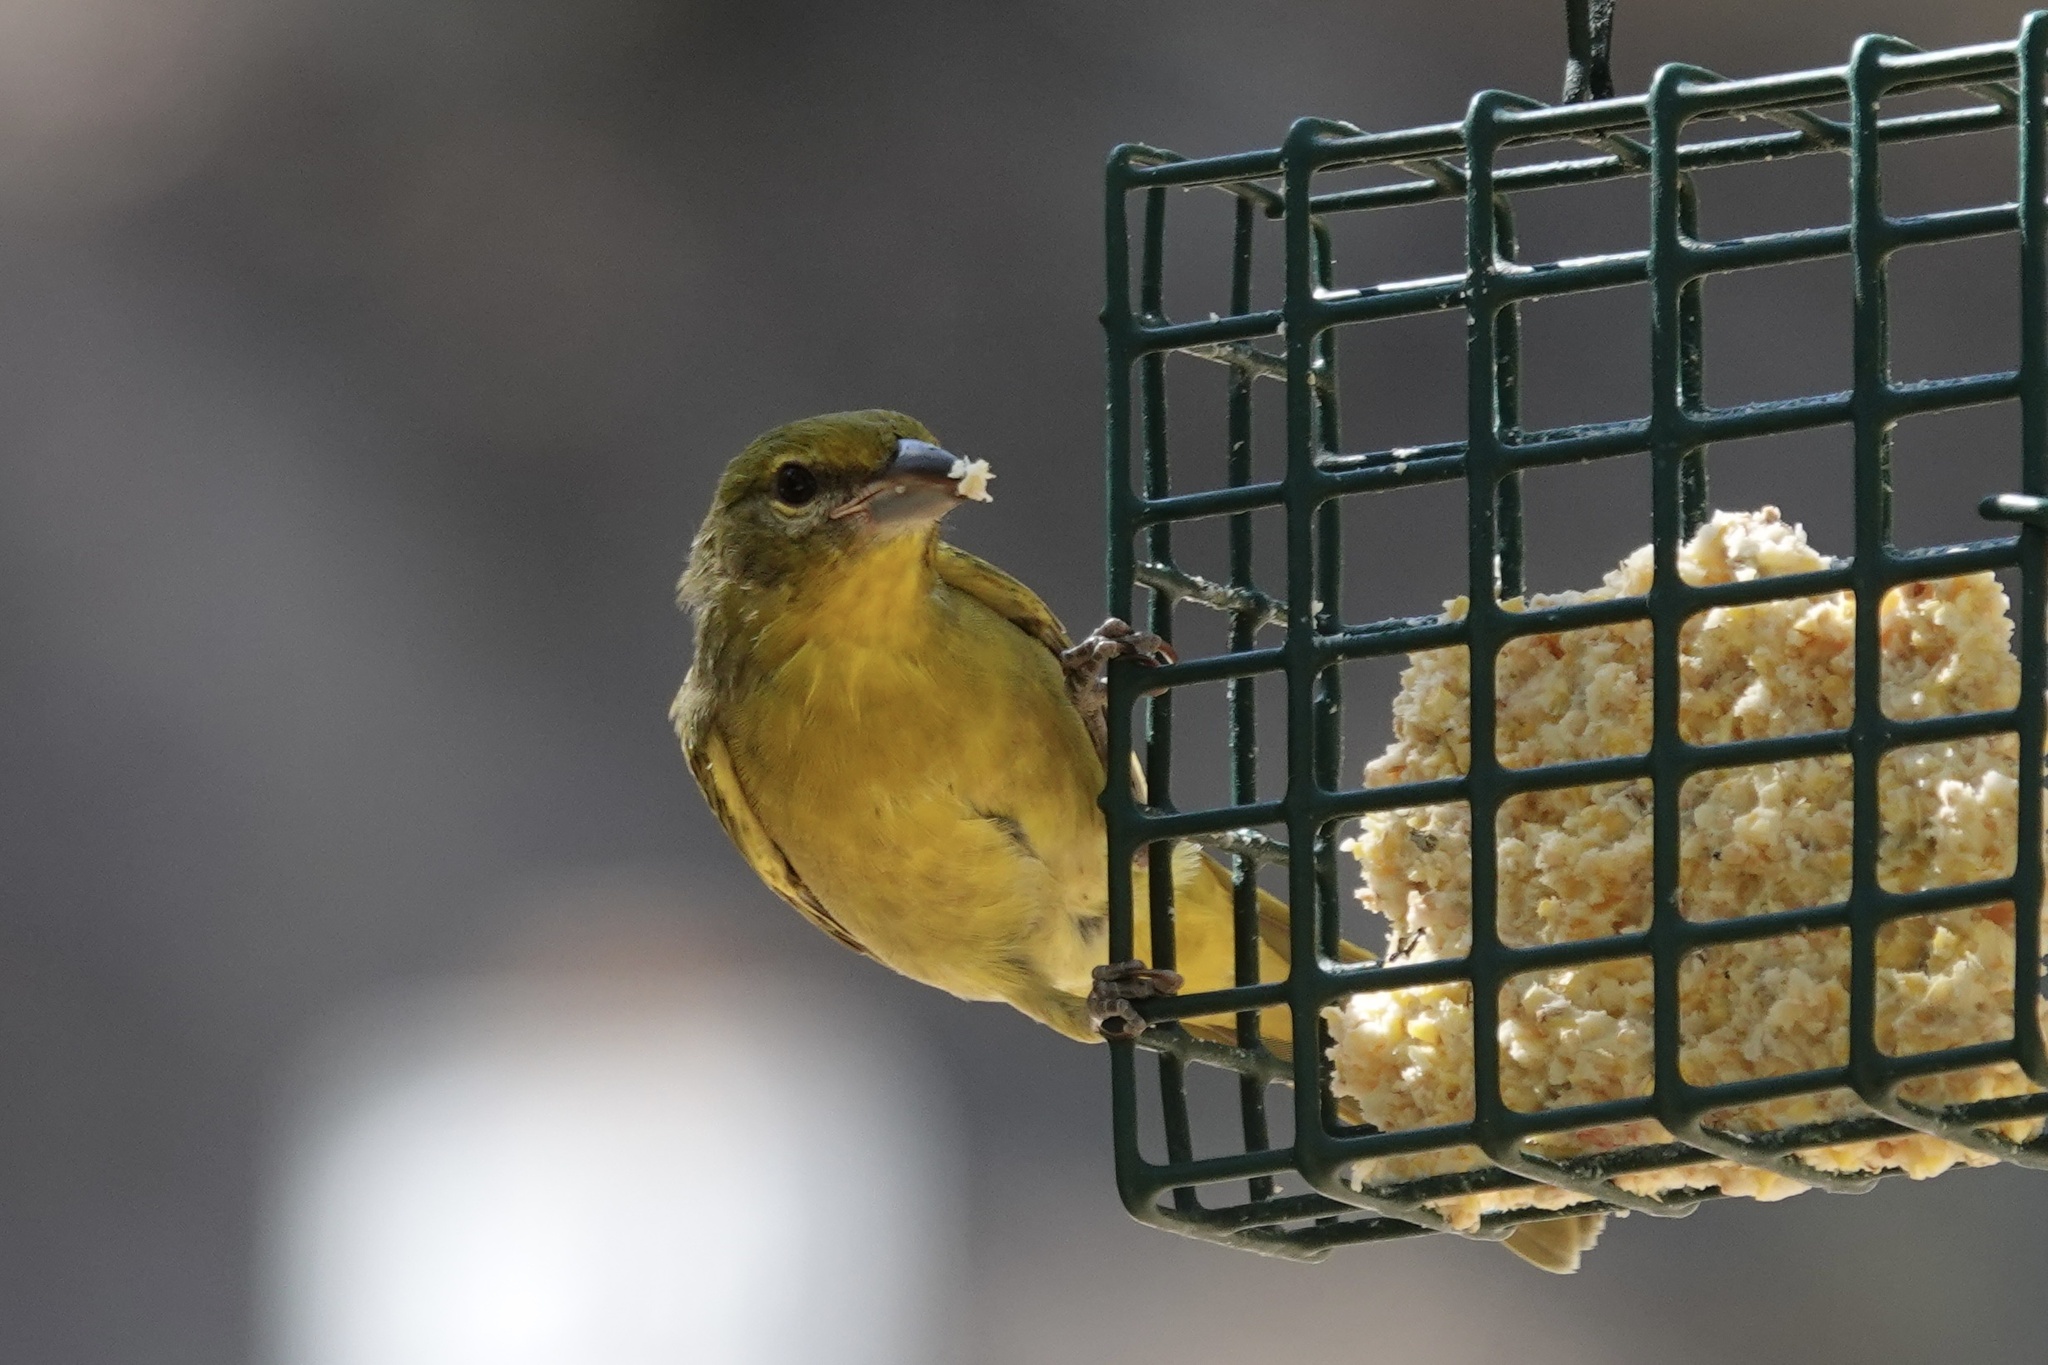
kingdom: Animalia
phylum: Chordata
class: Aves
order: Passeriformes
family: Cardinalidae
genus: Piranga
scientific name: Piranga flava
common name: Red tanager
